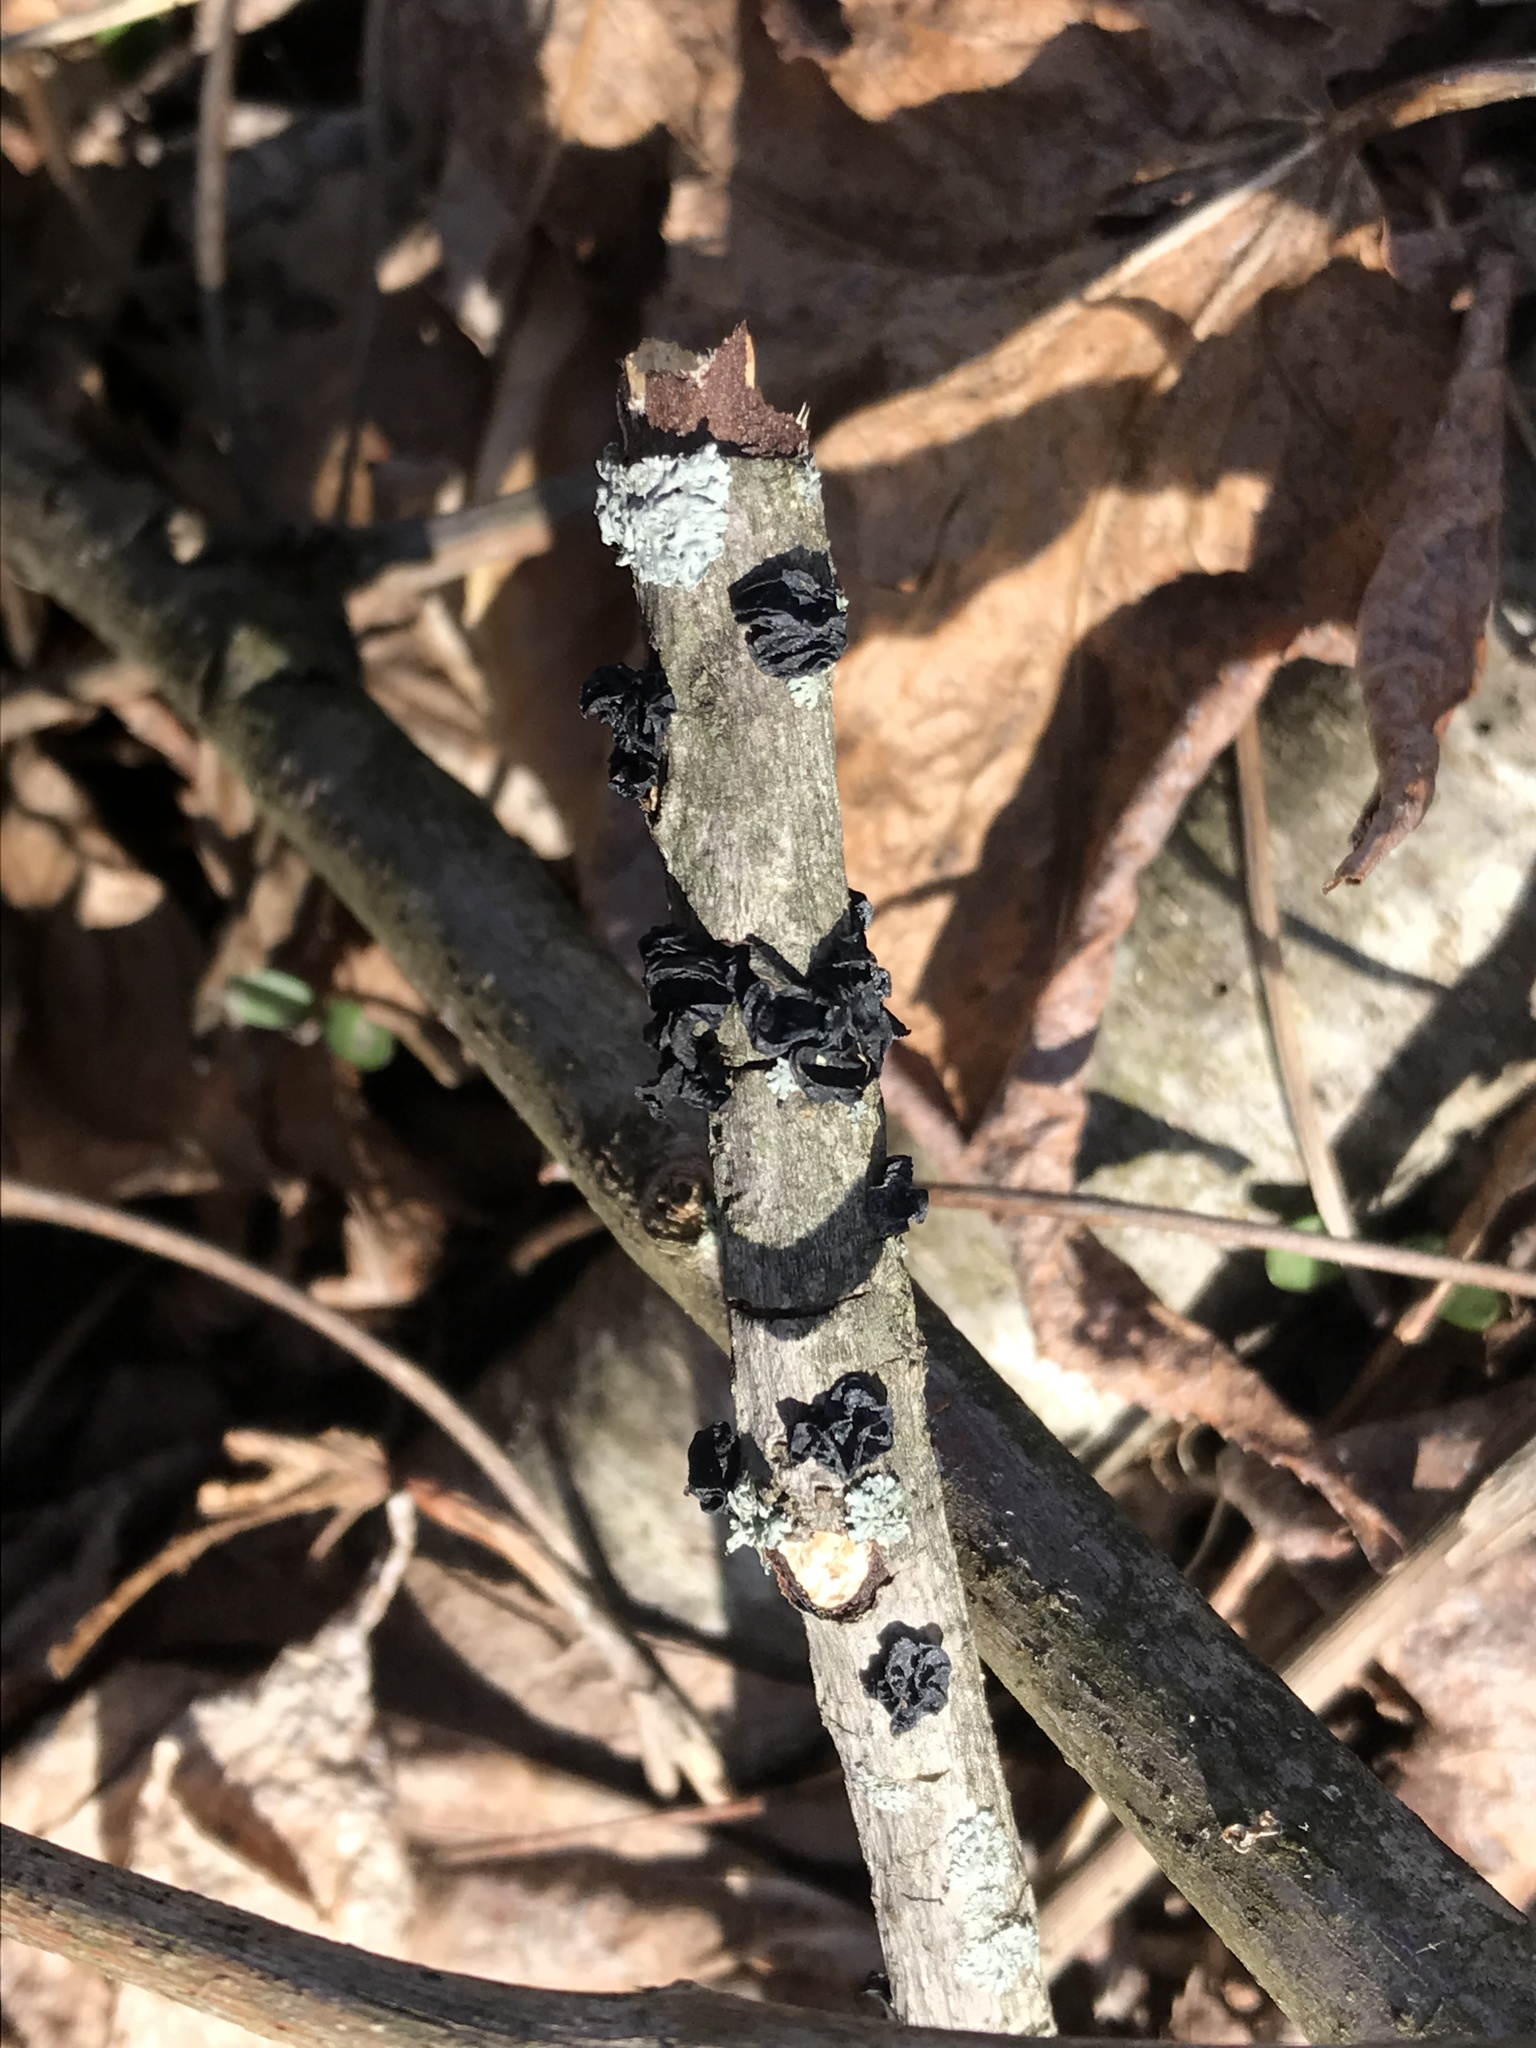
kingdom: Fungi
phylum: Basidiomycota
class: Agaricomycetes
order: Auriculariales
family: Auriculariaceae
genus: Exidia
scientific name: Exidia
